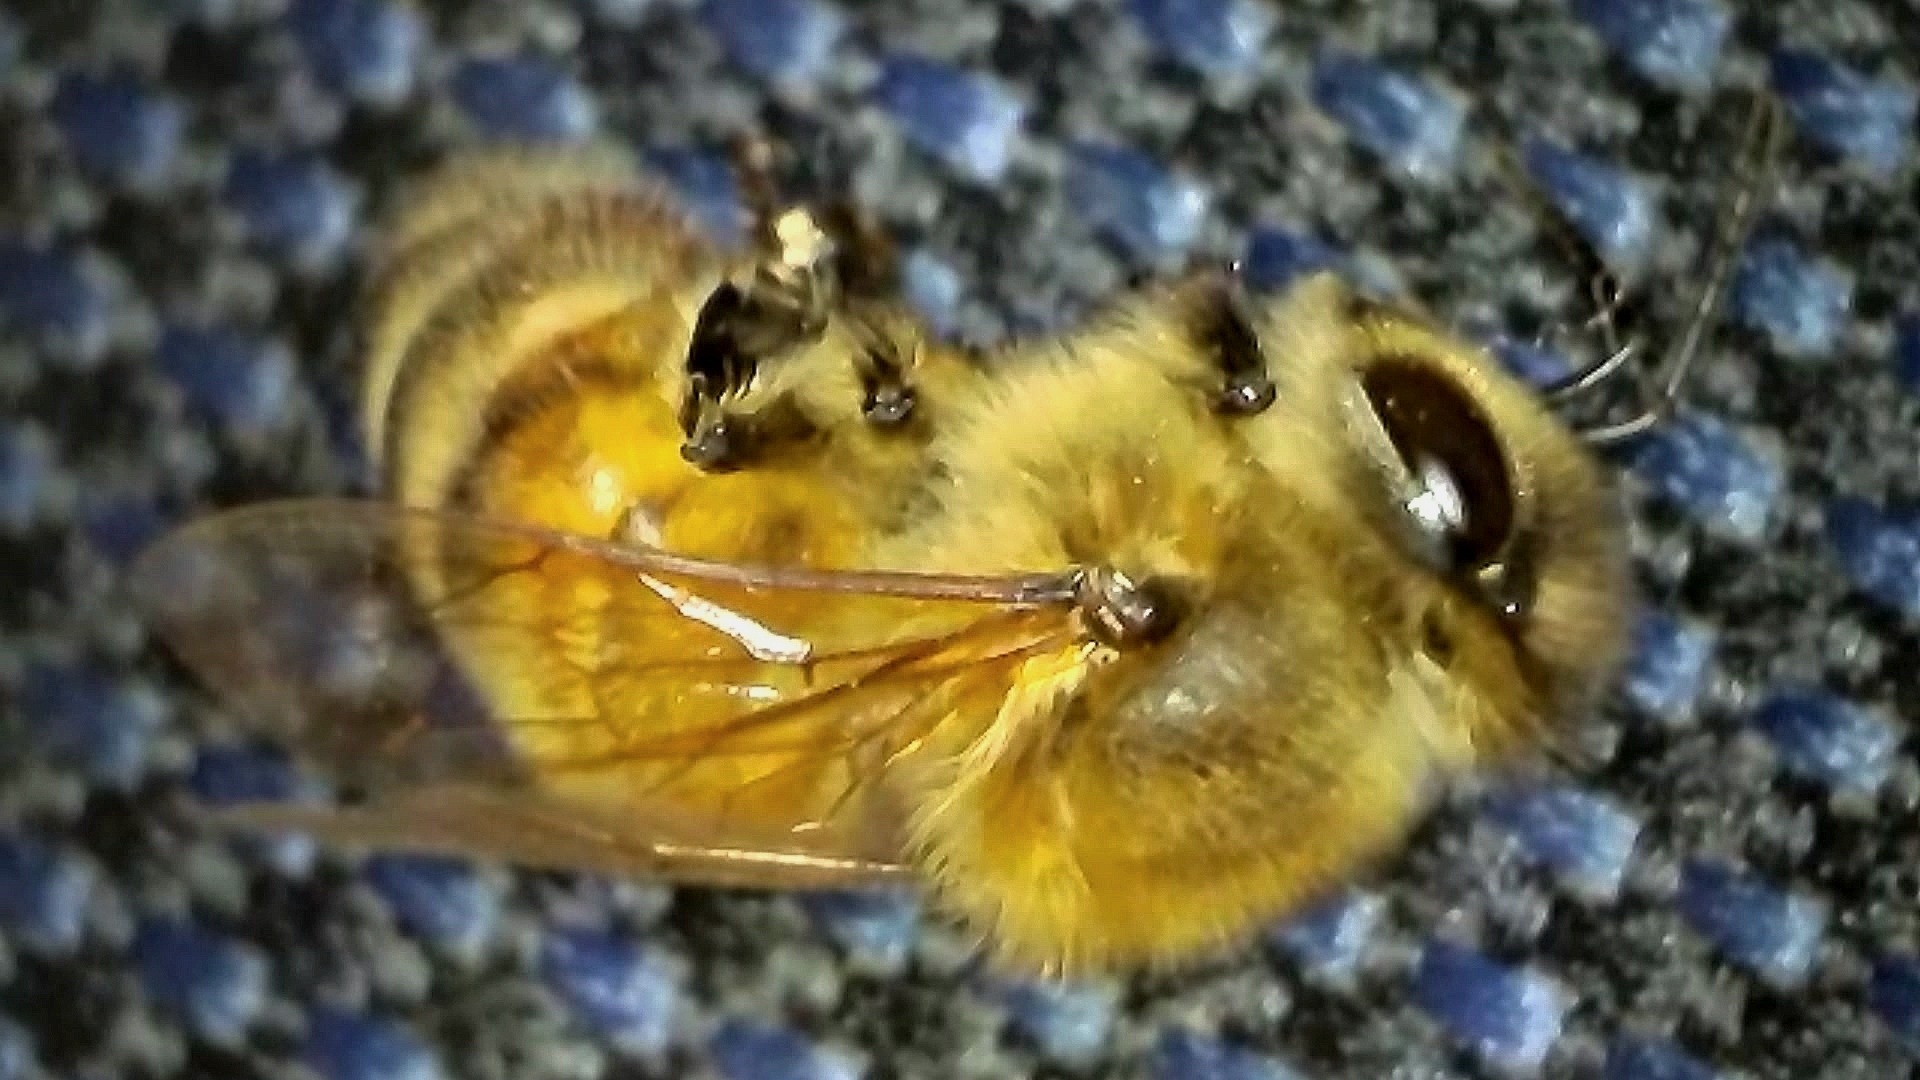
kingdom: Animalia
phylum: Arthropoda
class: Insecta
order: Hymenoptera
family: Apidae
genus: Apis
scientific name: Apis mellifera
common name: Honey bee
